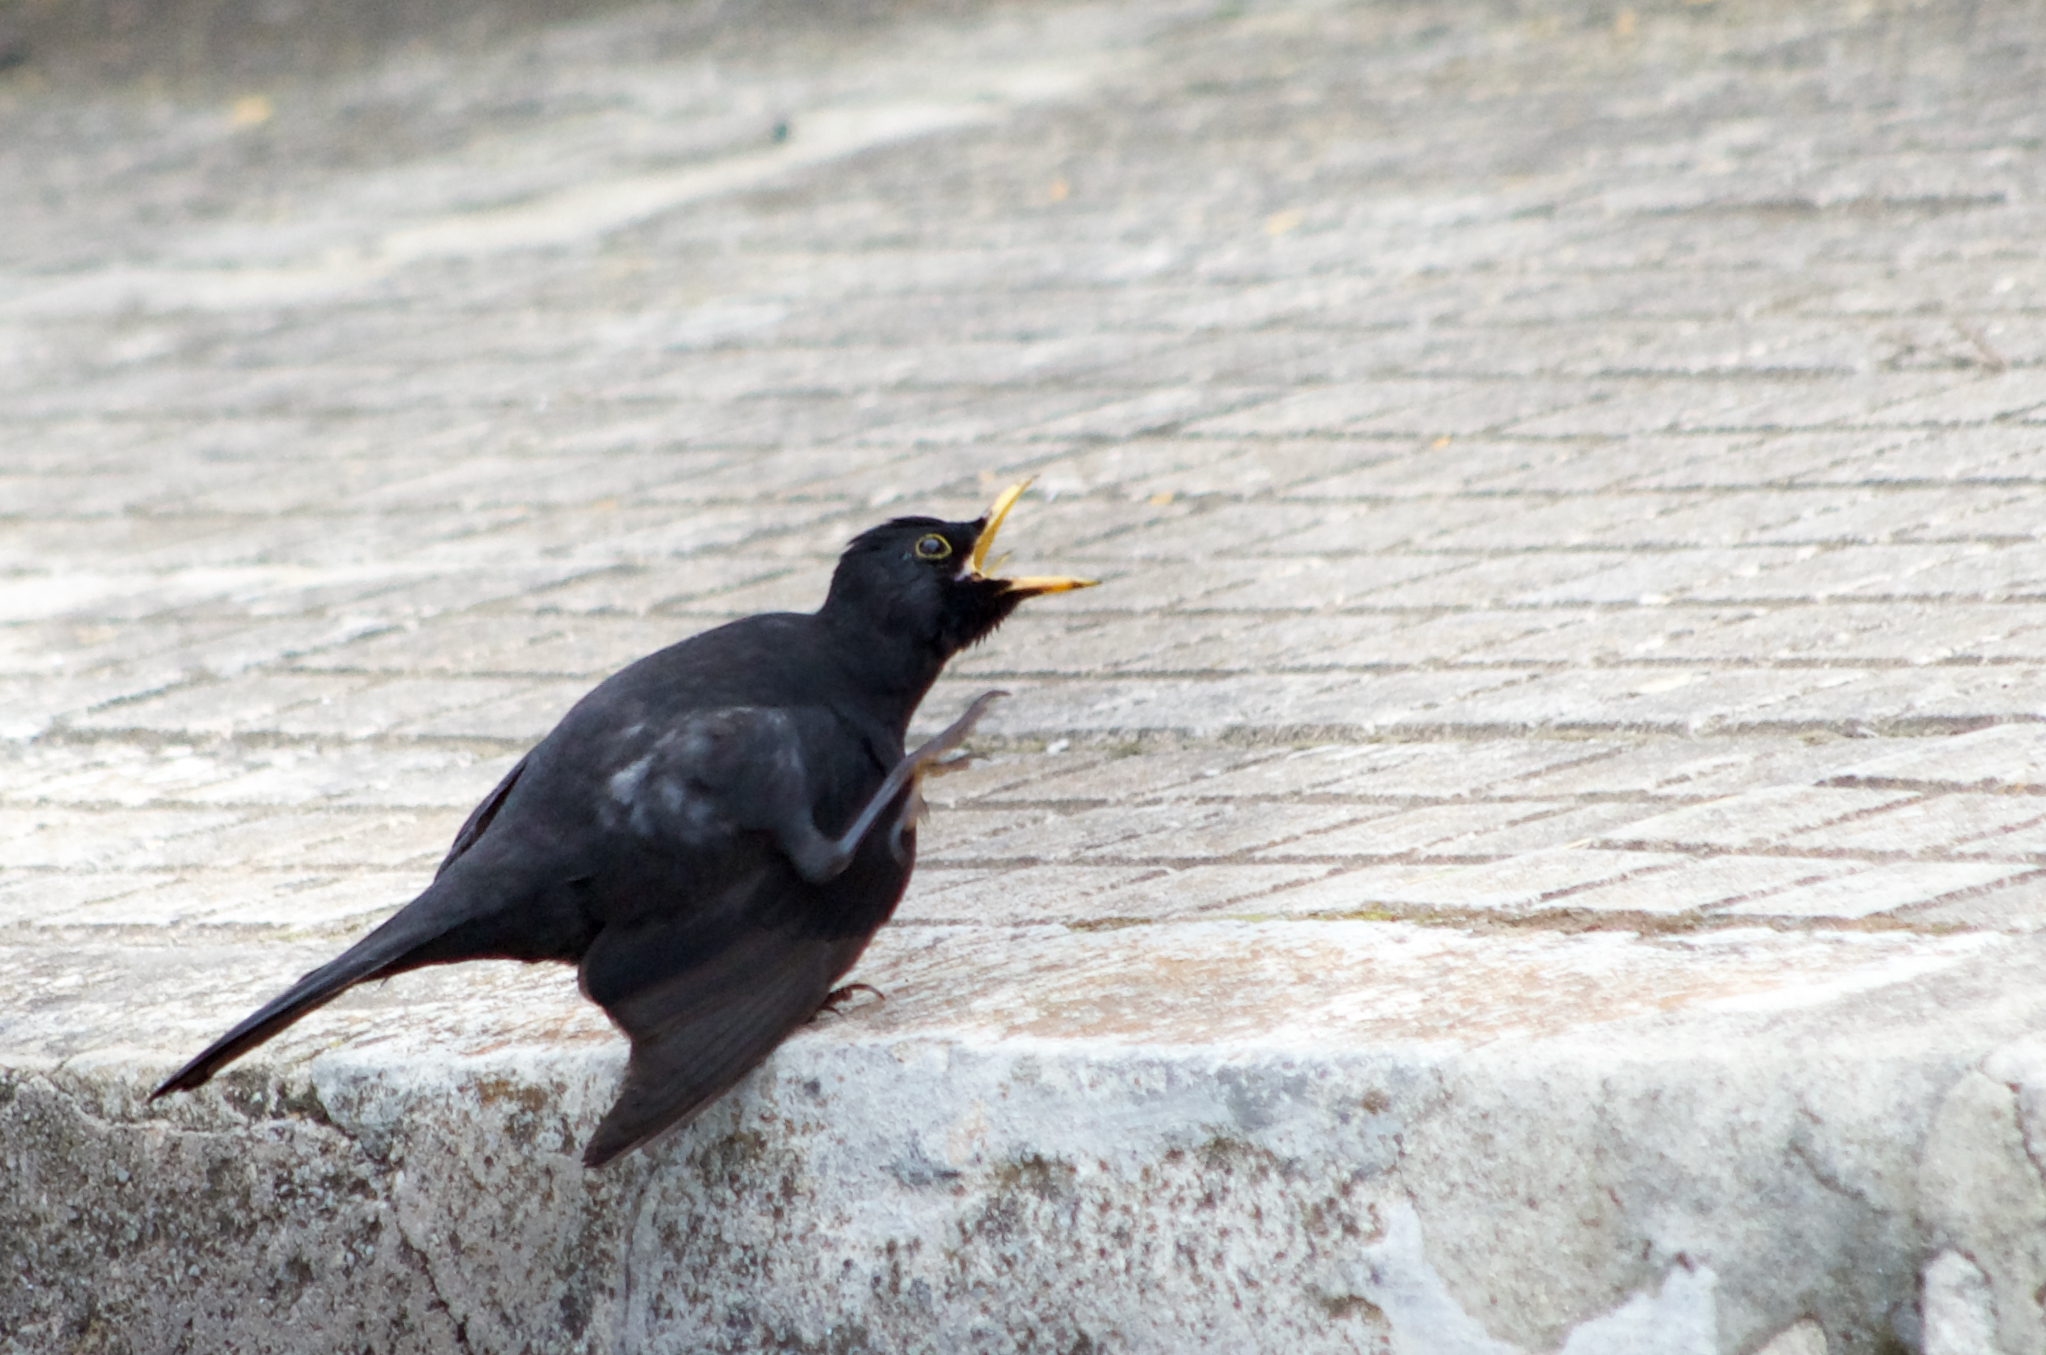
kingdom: Animalia
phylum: Chordata
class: Aves
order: Passeriformes
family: Turdidae
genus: Turdus
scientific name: Turdus merula
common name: Common blackbird
